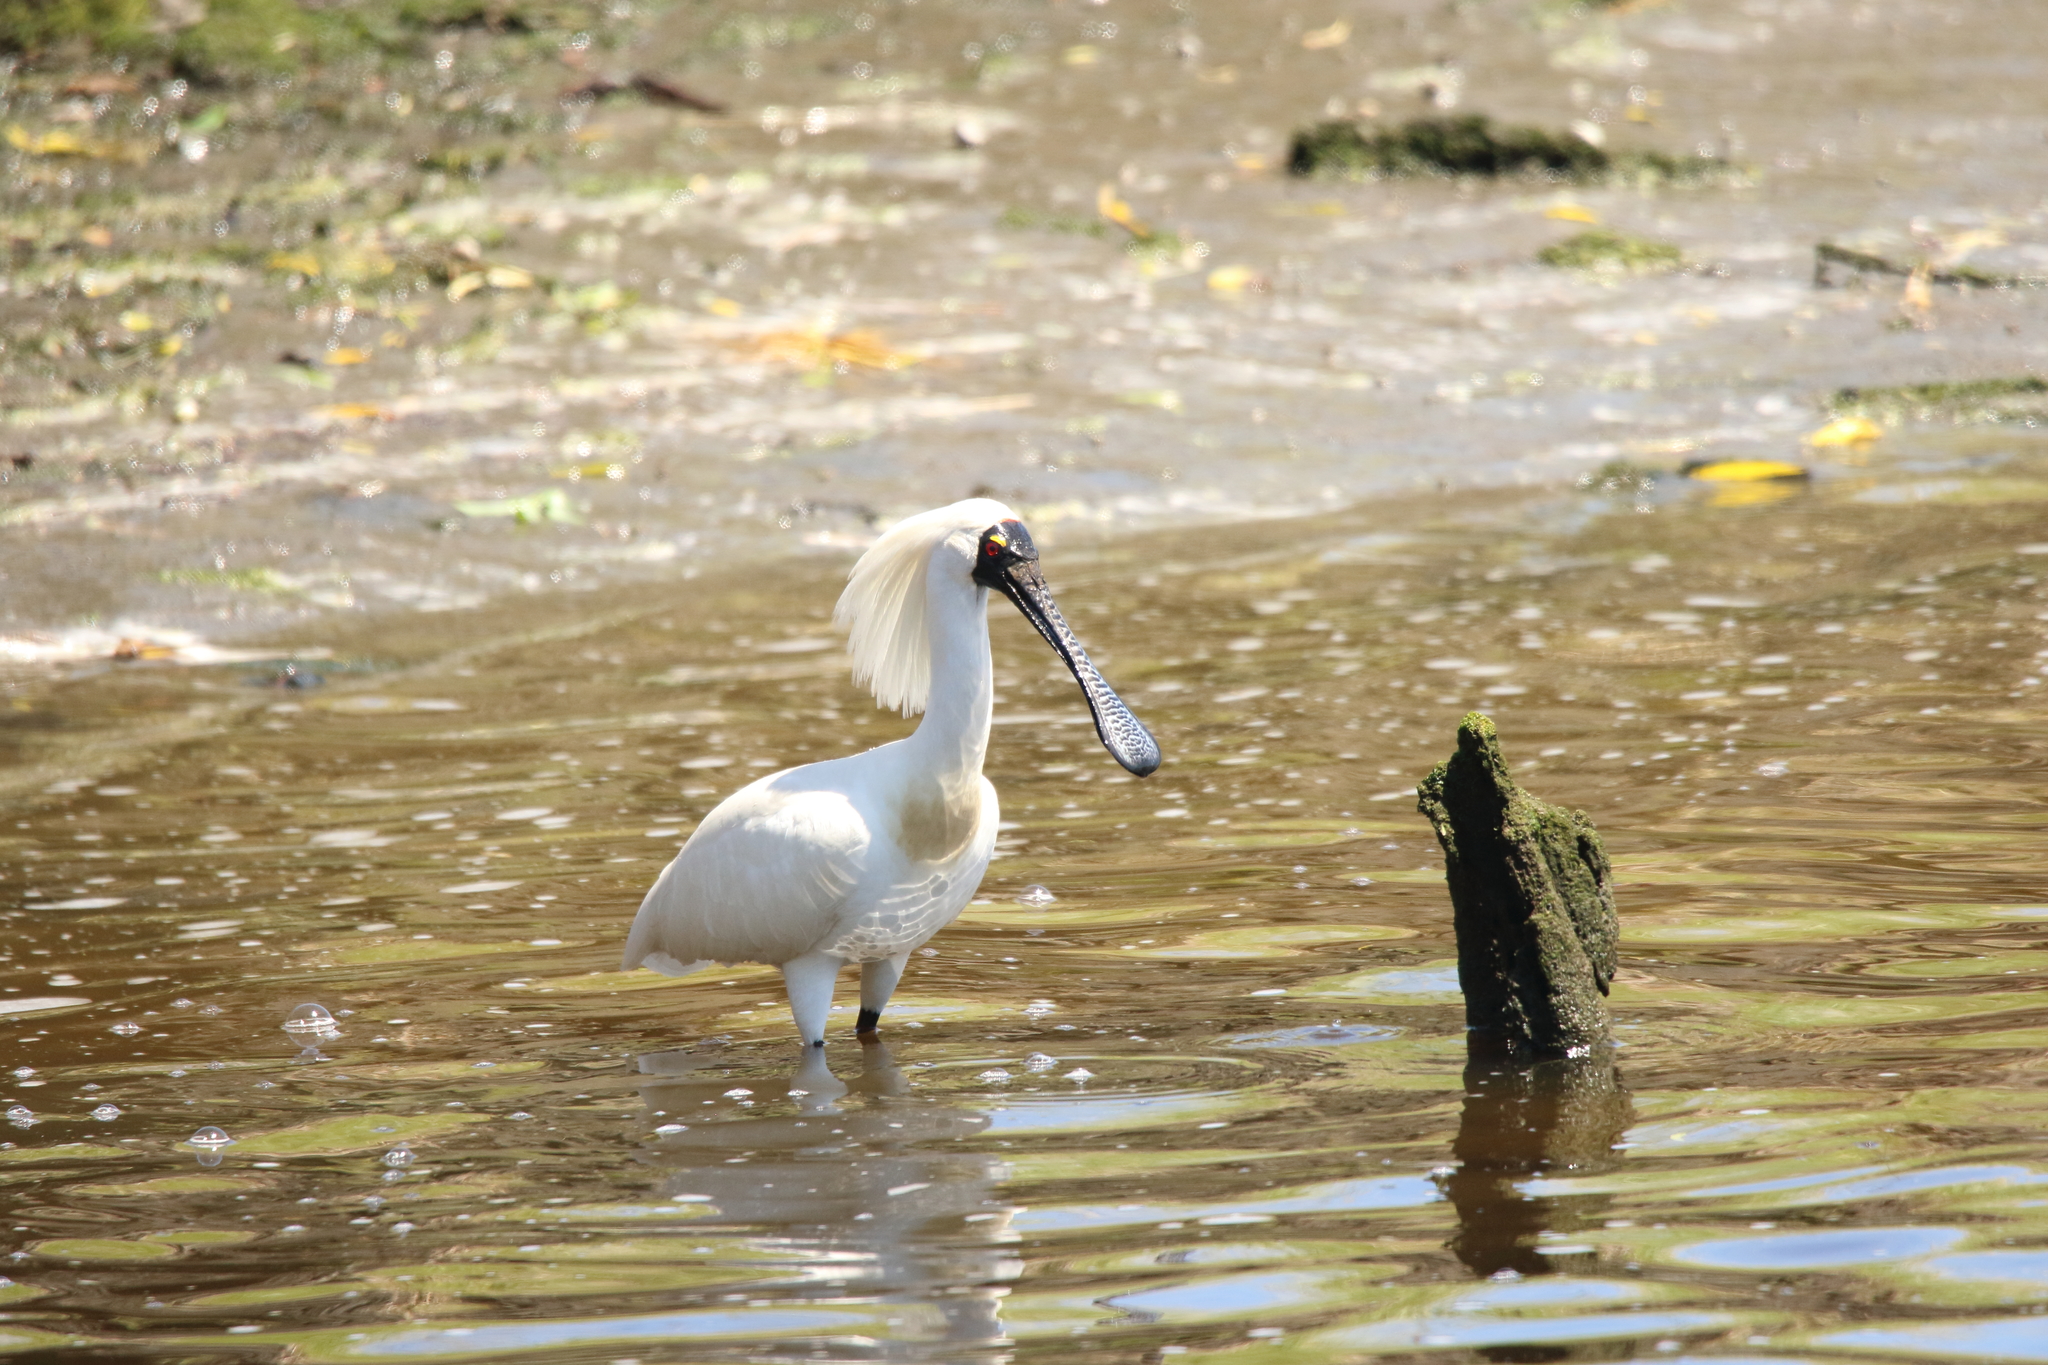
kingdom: Animalia
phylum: Chordata
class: Aves
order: Pelecaniformes
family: Threskiornithidae
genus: Platalea
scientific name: Platalea regia
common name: Royal spoonbill
